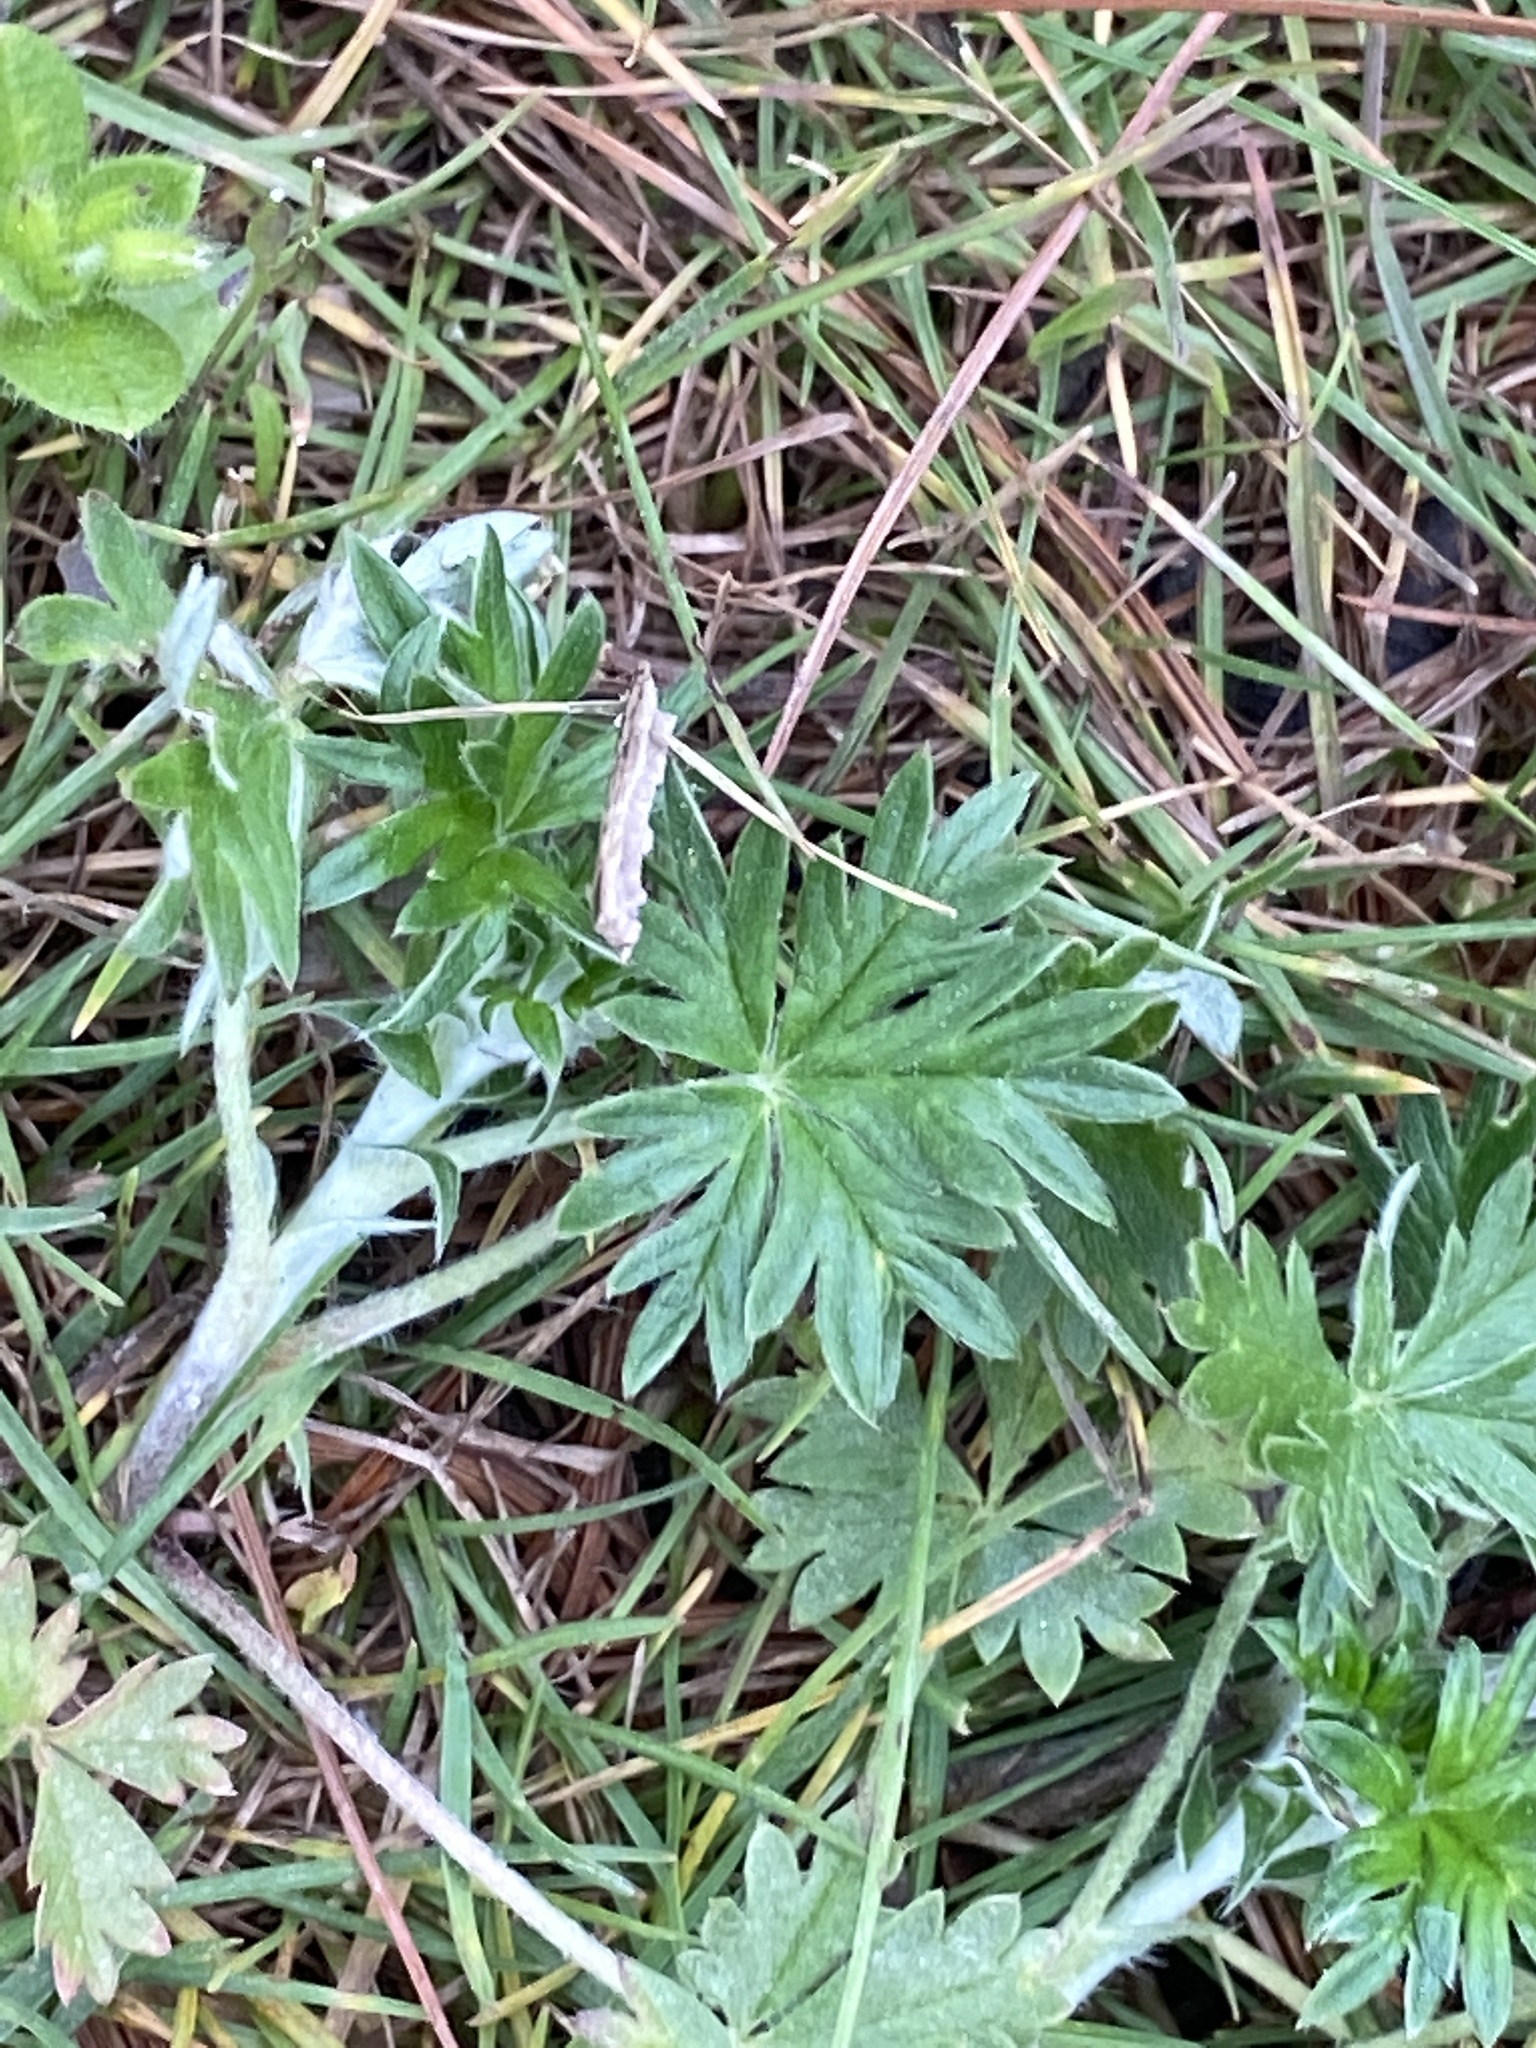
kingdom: Plantae
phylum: Tracheophyta
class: Magnoliopsida
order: Rosales
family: Rosaceae
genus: Potentilla
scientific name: Potentilla argentea
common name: Hoary cinquefoil
